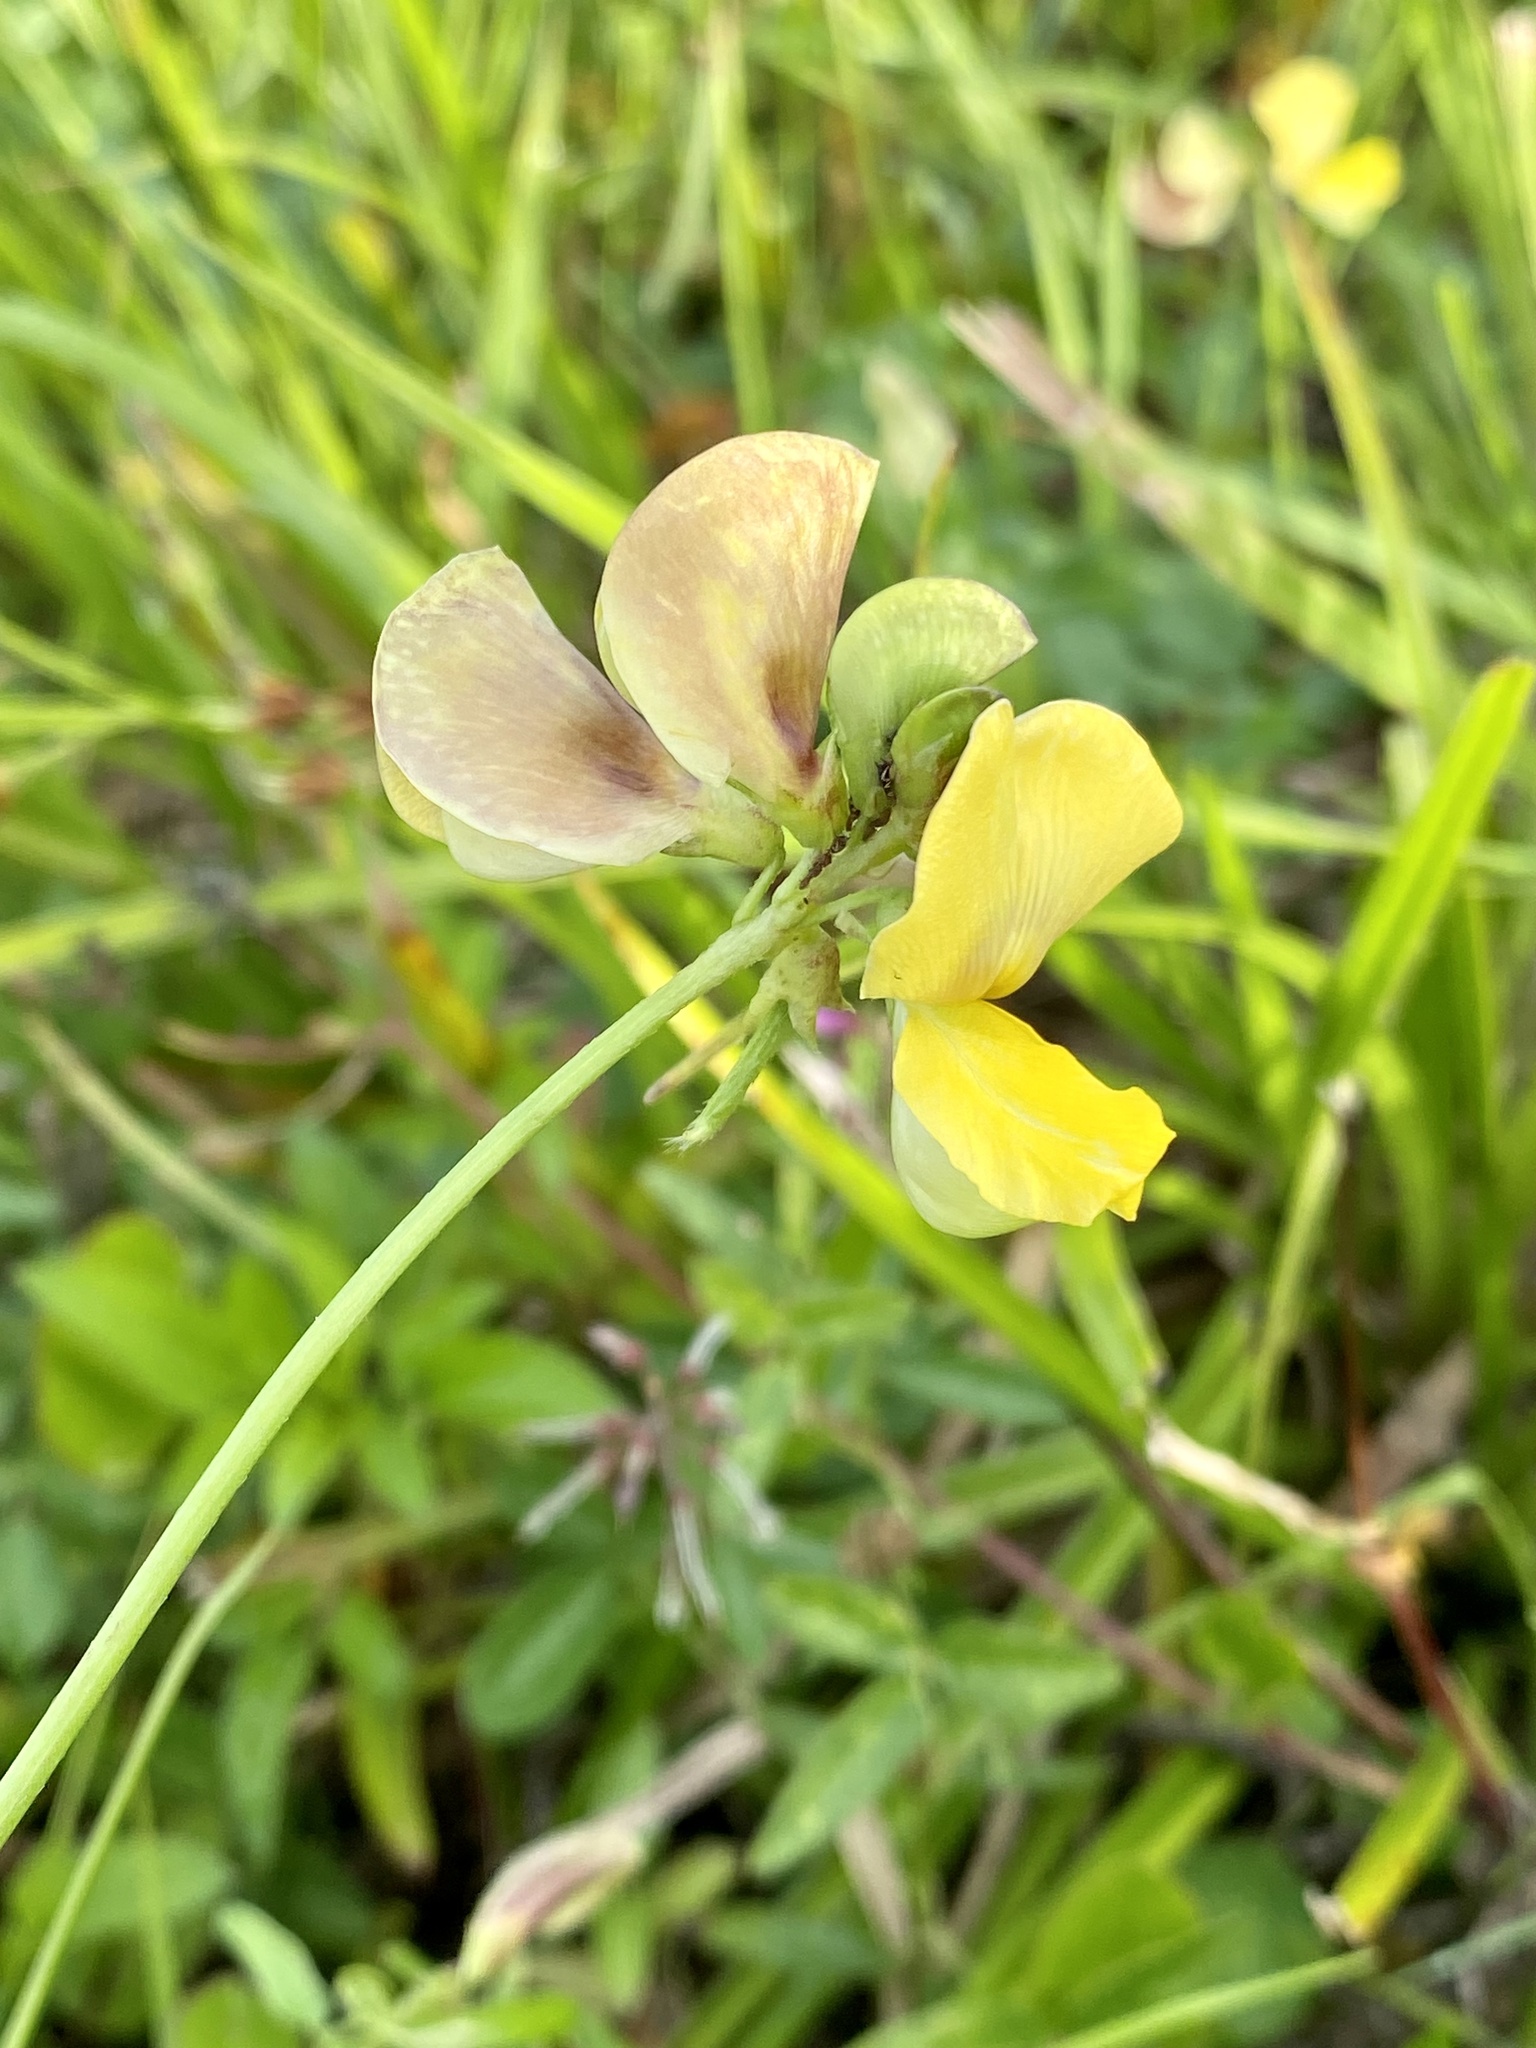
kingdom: Plantae
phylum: Tracheophyta
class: Magnoliopsida
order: Fabales
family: Fabaceae
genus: Vigna
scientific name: Vigna luteola
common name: Hairypod cowpea
